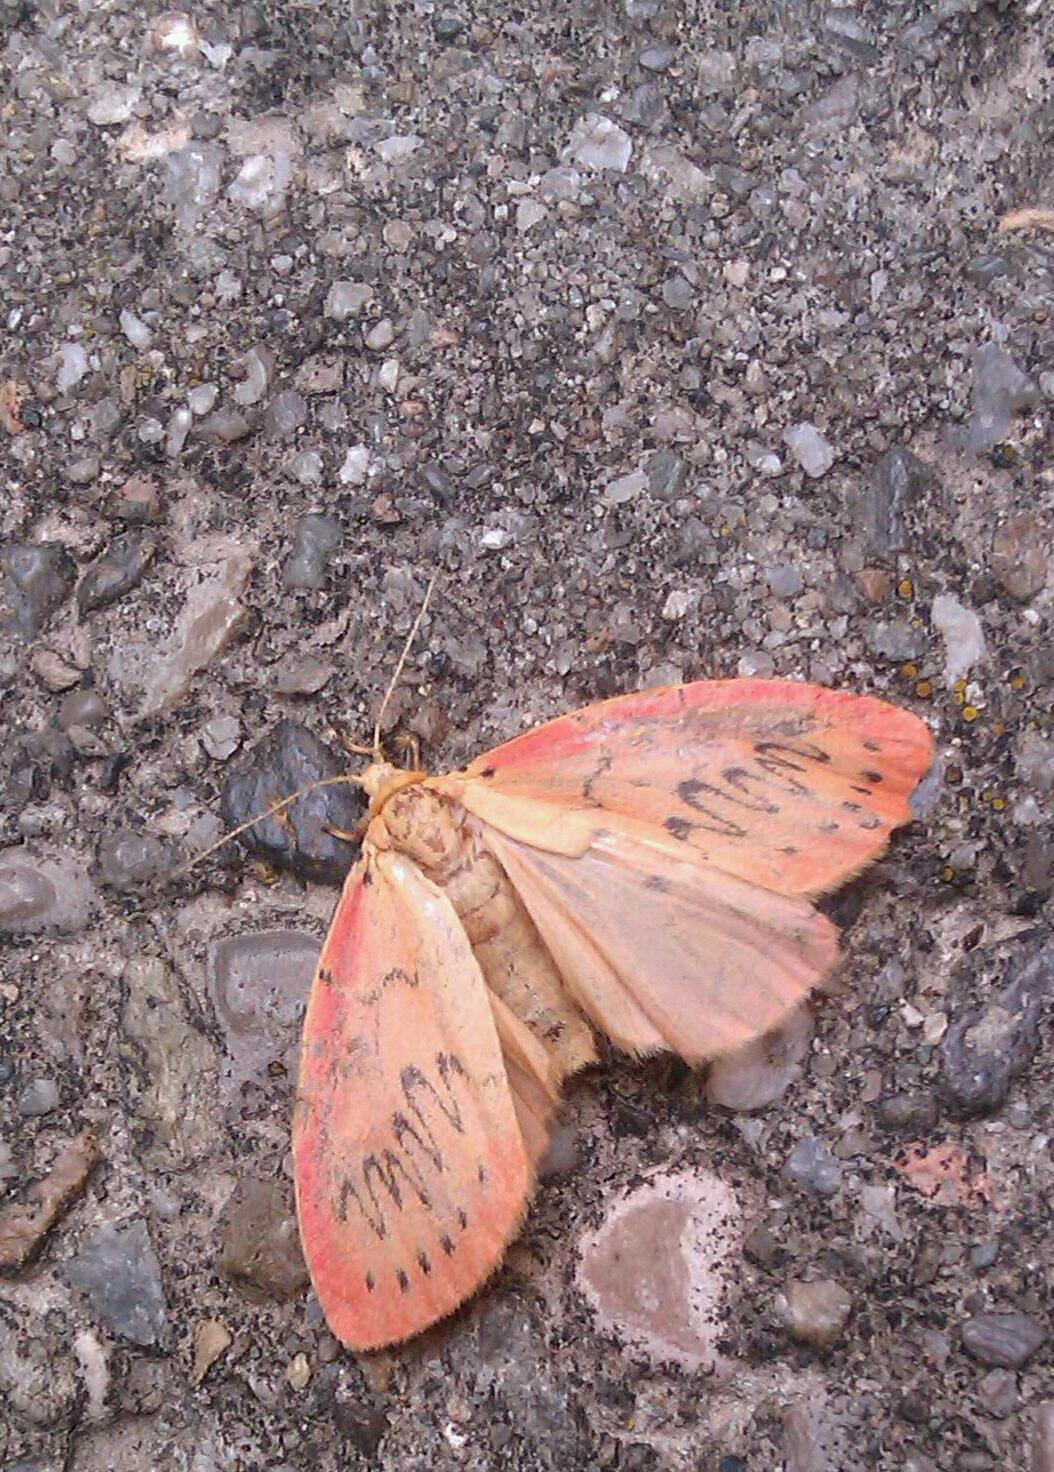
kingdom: Animalia
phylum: Arthropoda
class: Insecta
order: Lepidoptera
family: Erebidae
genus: Miltochrista
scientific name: Miltochrista miniata
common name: Rosy footman
